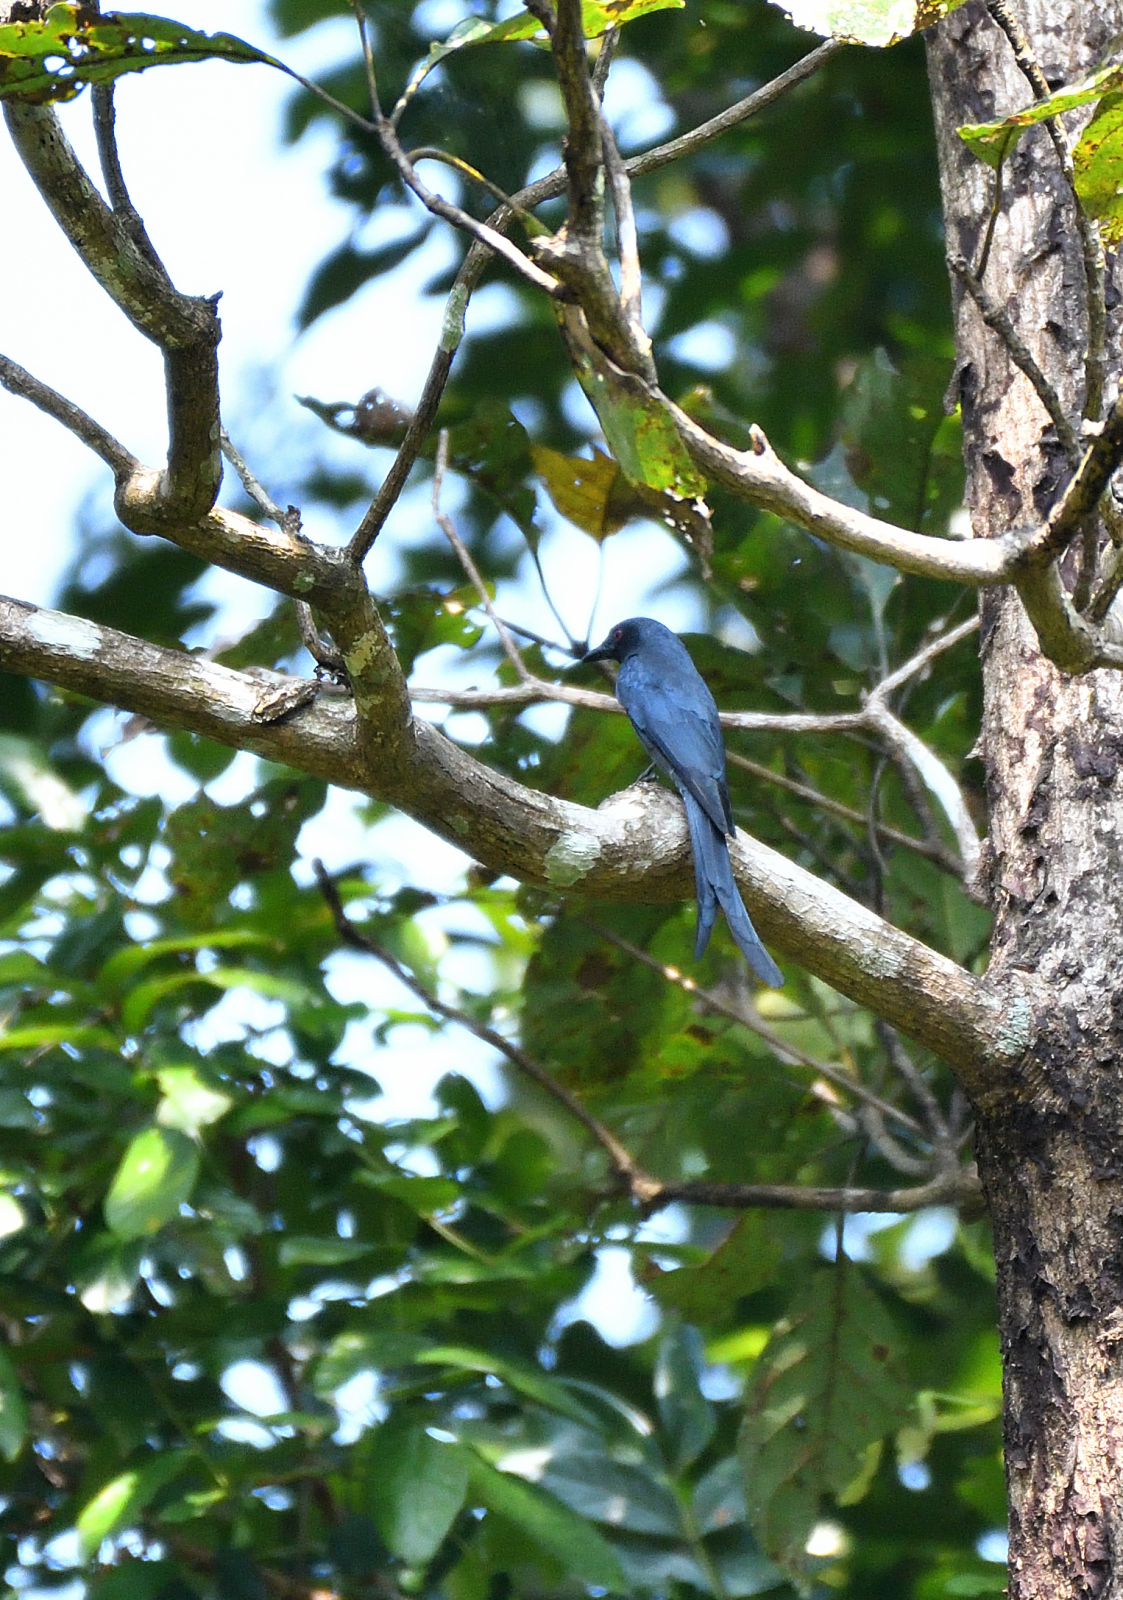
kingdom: Animalia
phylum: Chordata
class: Aves
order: Passeriformes
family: Dicruridae
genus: Dicrurus
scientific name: Dicrurus leucophaeus
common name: Ashy drongo
